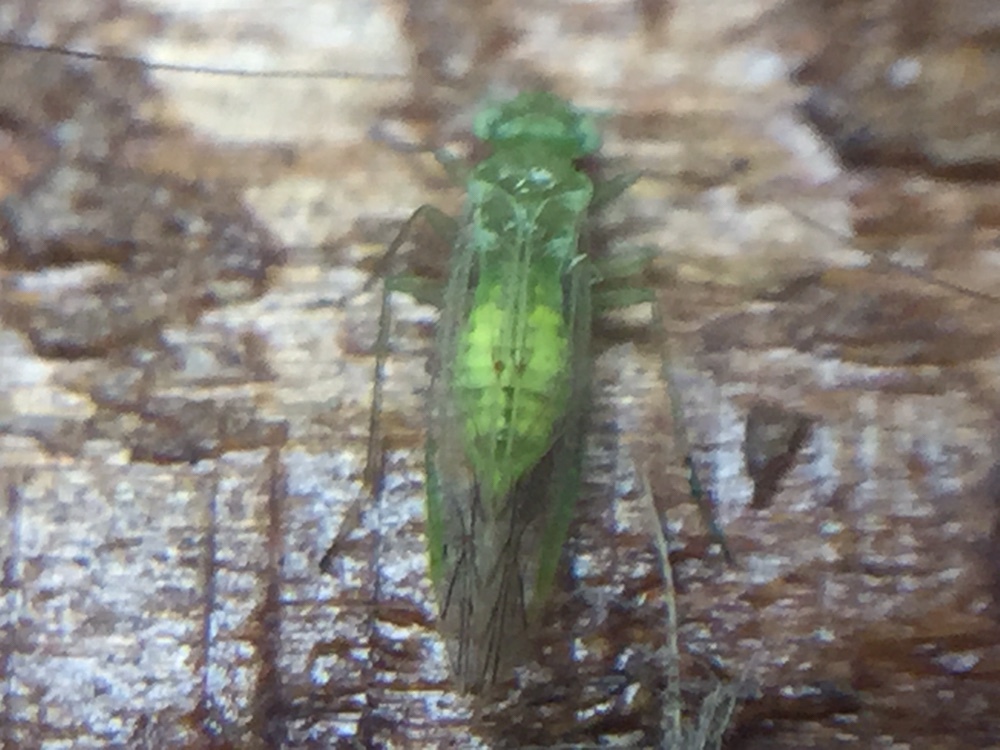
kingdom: Animalia
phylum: Arthropoda
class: Insecta
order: Psocodea
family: Pseudocaeciliidae
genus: Austropsocus
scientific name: Austropsocus viridis
